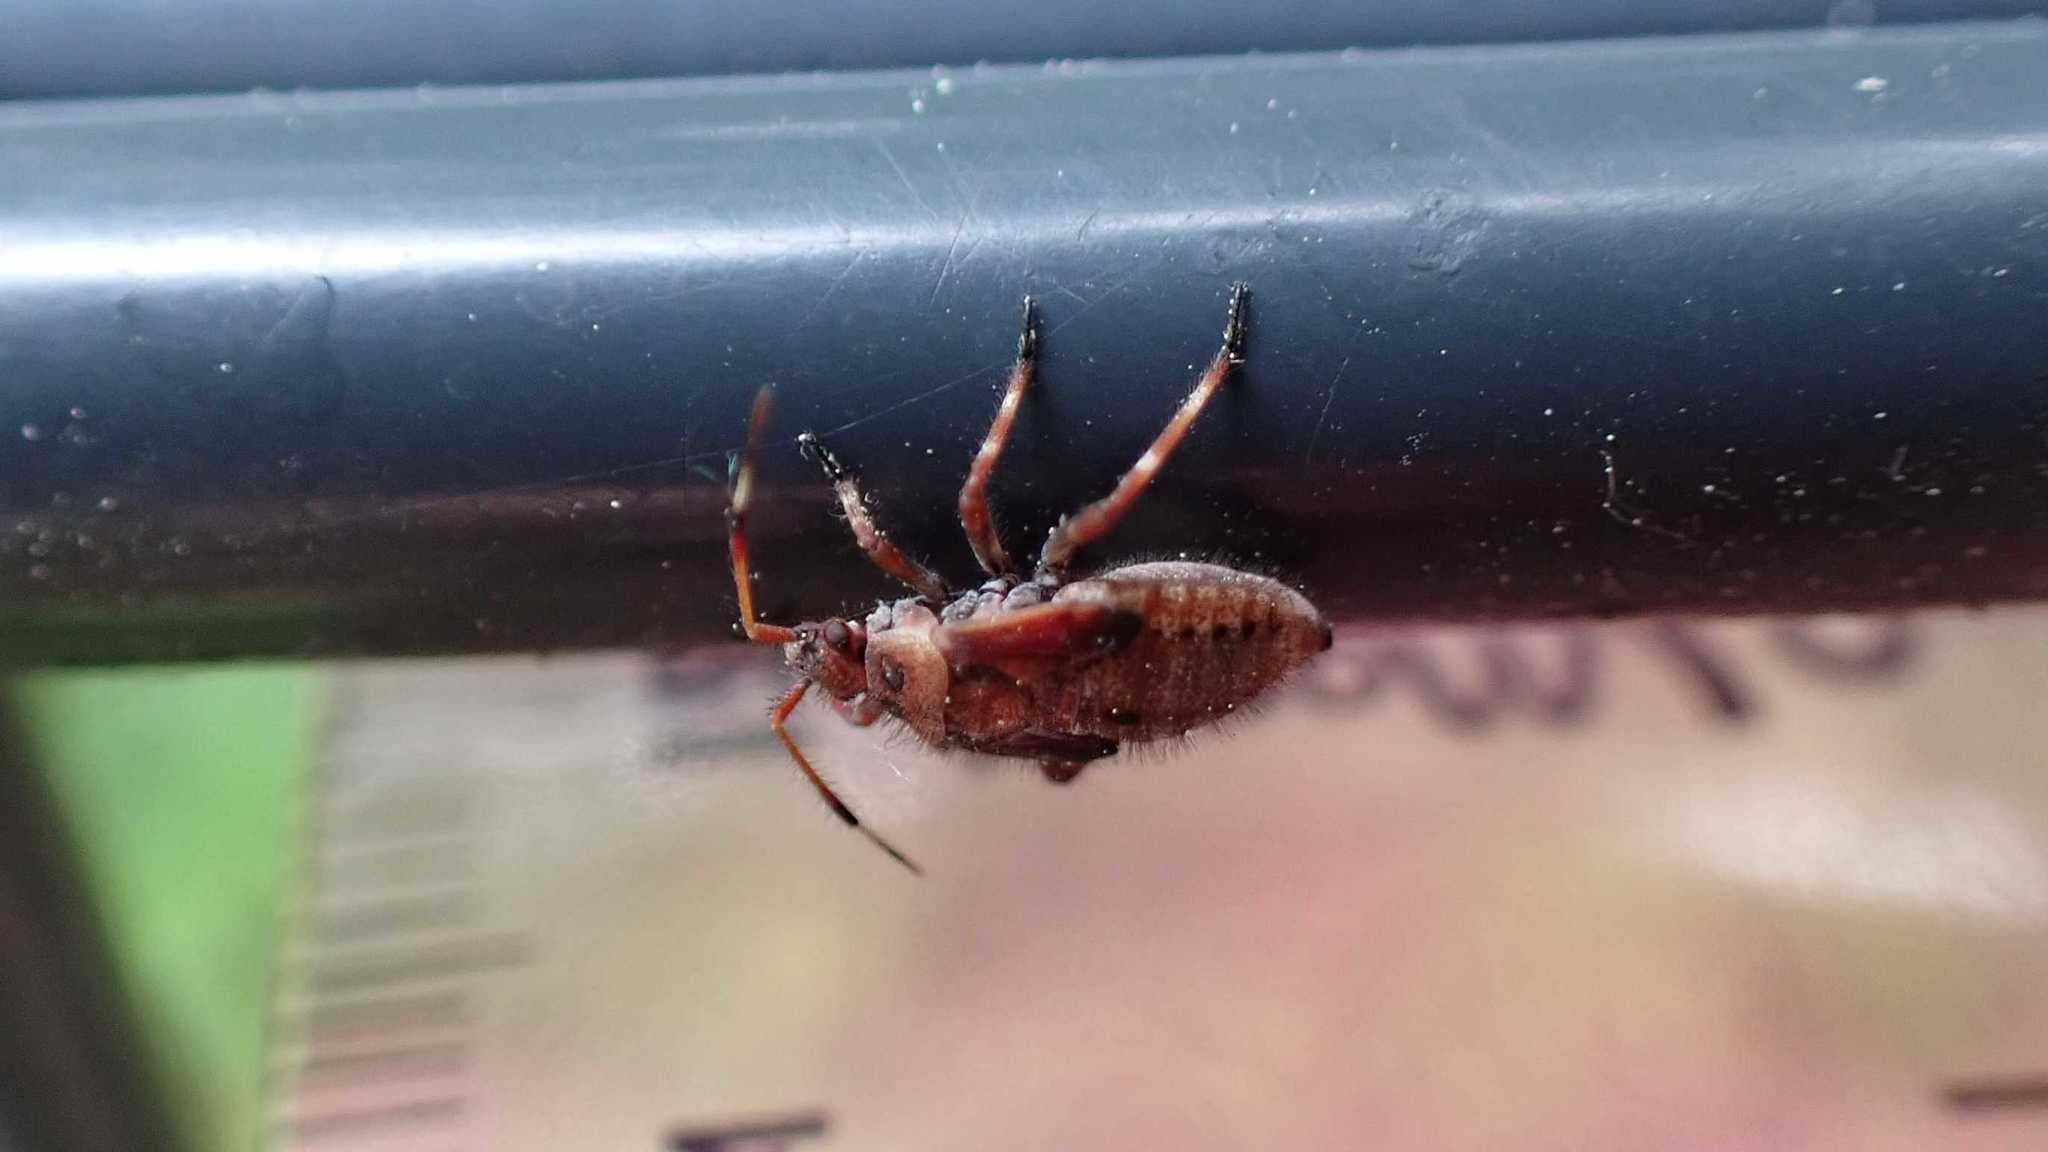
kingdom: Animalia
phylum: Arthropoda
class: Insecta
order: Hemiptera
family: Miridae
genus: Deraeocoris
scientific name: Deraeocoris olivaceus
